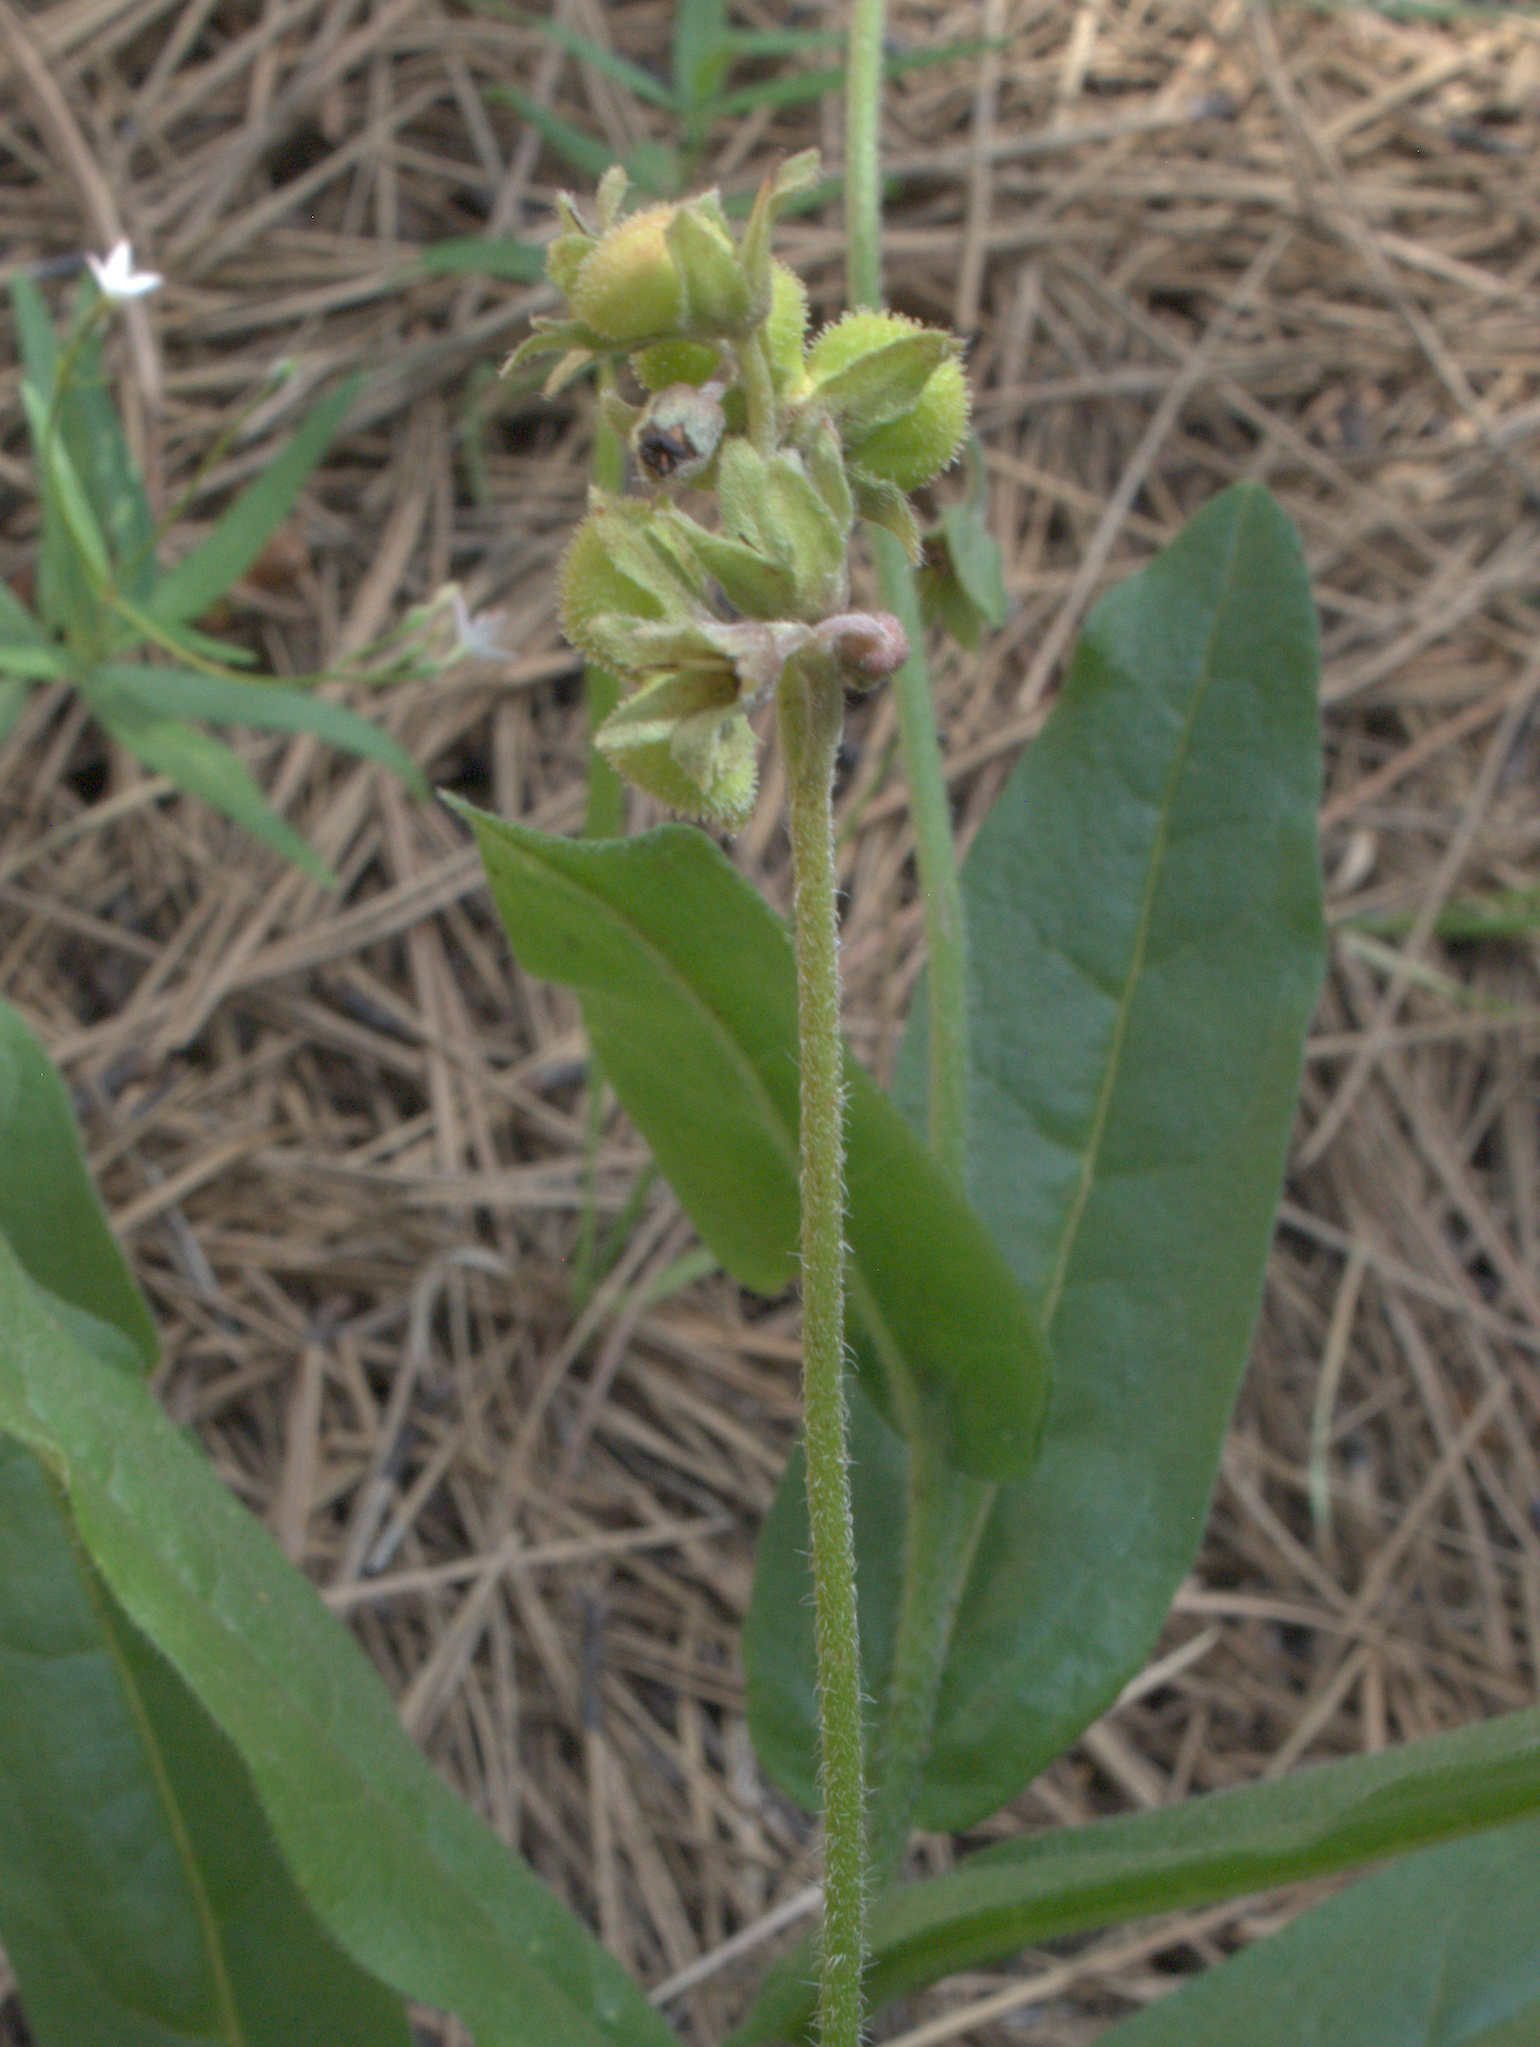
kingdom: Plantae
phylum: Tracheophyta
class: Magnoliopsida
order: Boraginales
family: Boraginaceae
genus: Cynoglossum
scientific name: Cynoglossum officinale
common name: Hound's-tongue
